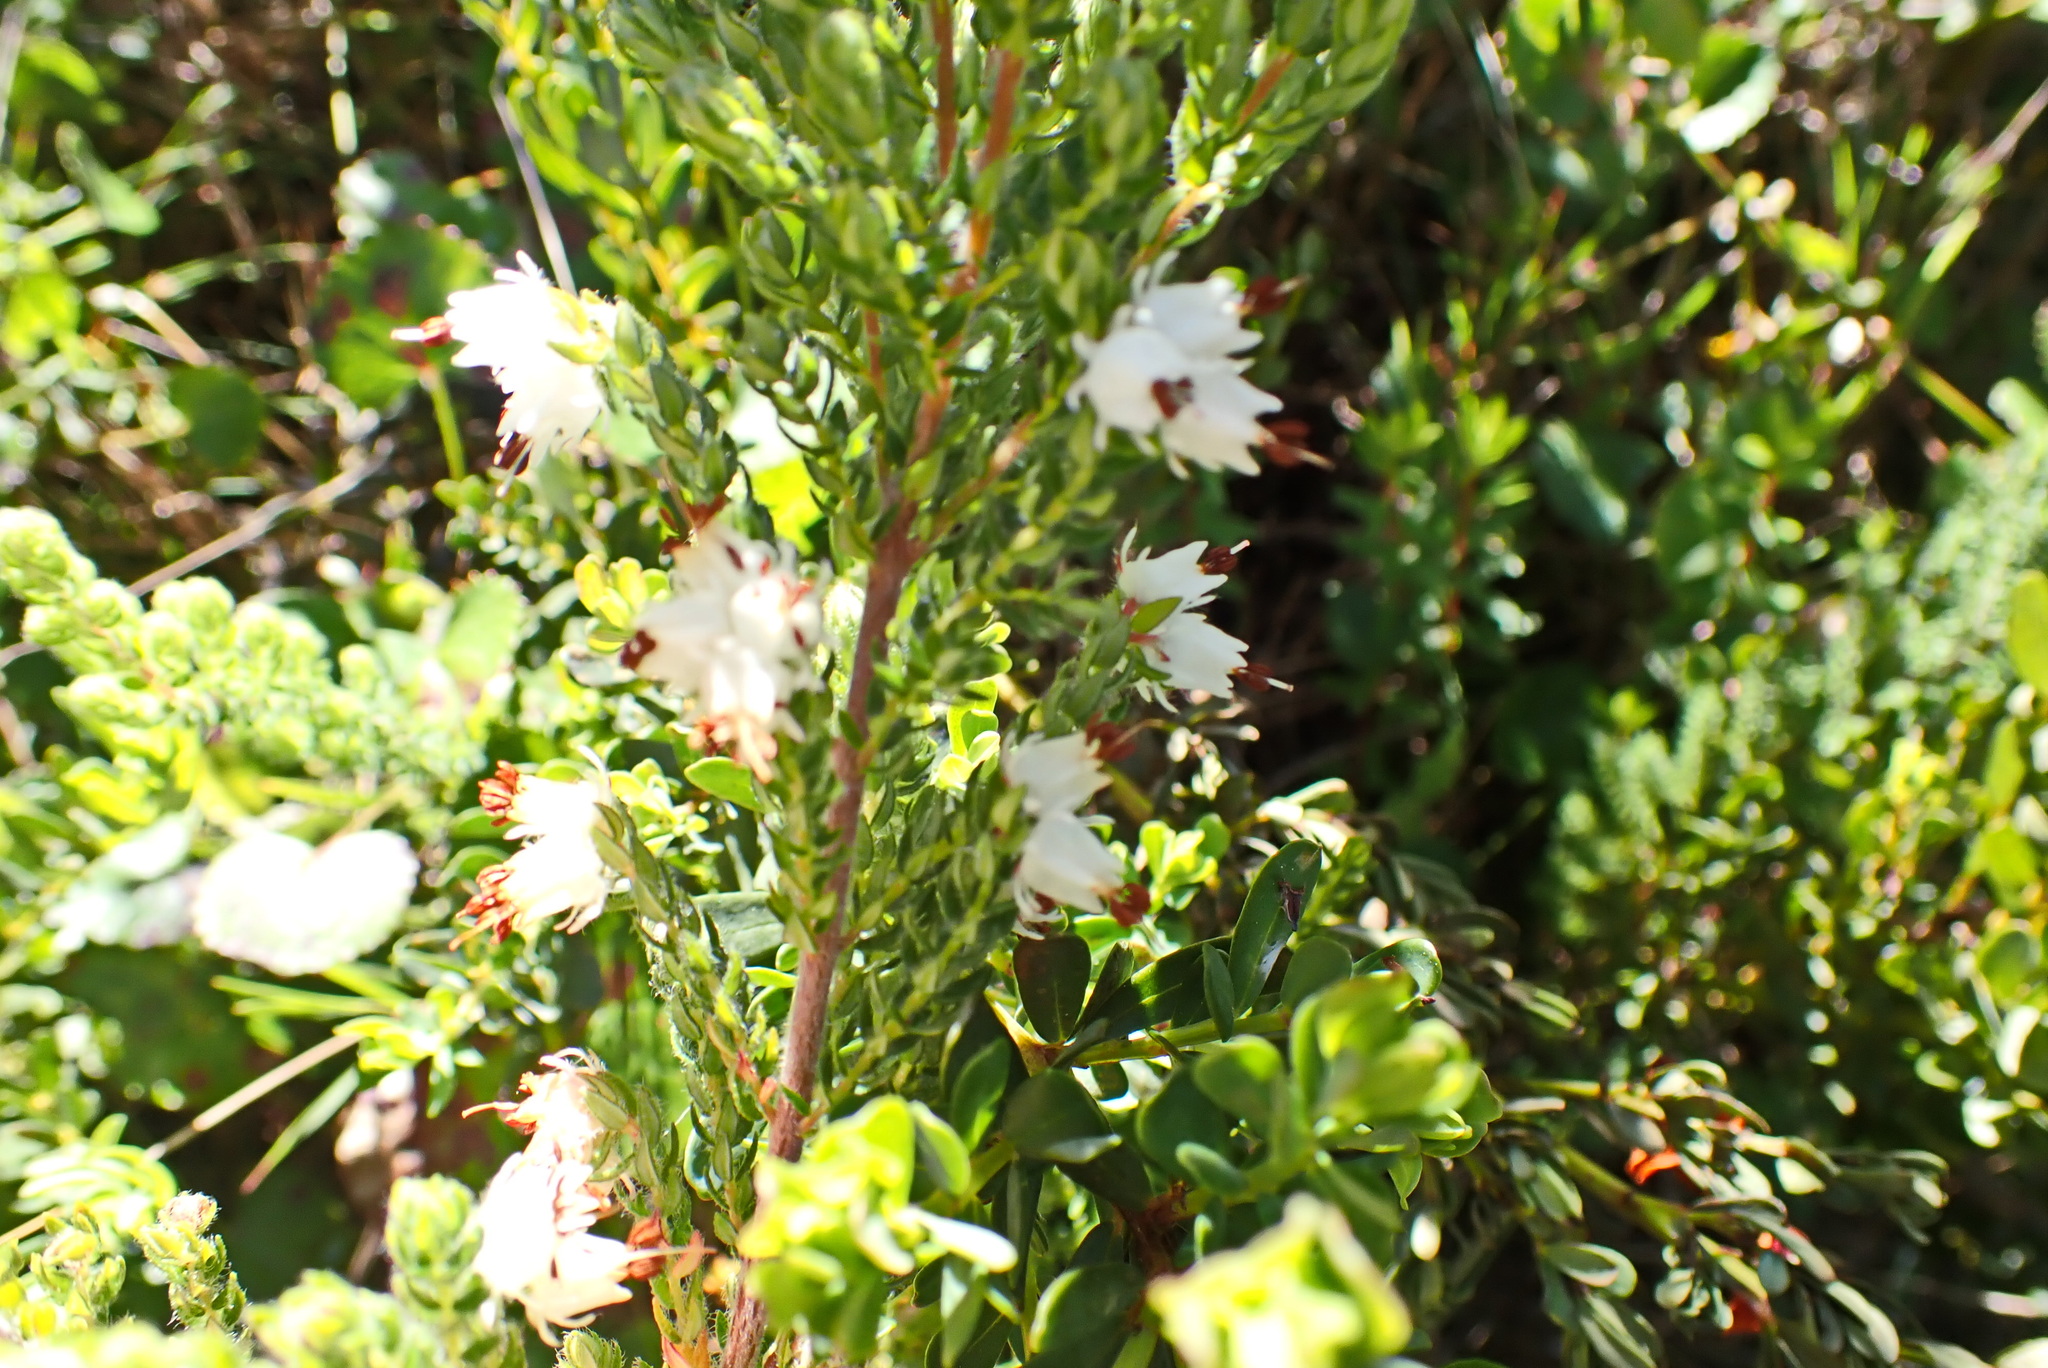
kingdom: Plantae
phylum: Tracheophyta
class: Magnoliopsida
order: Ericales
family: Ericaceae
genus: Erica
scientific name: Erica lehmannii
